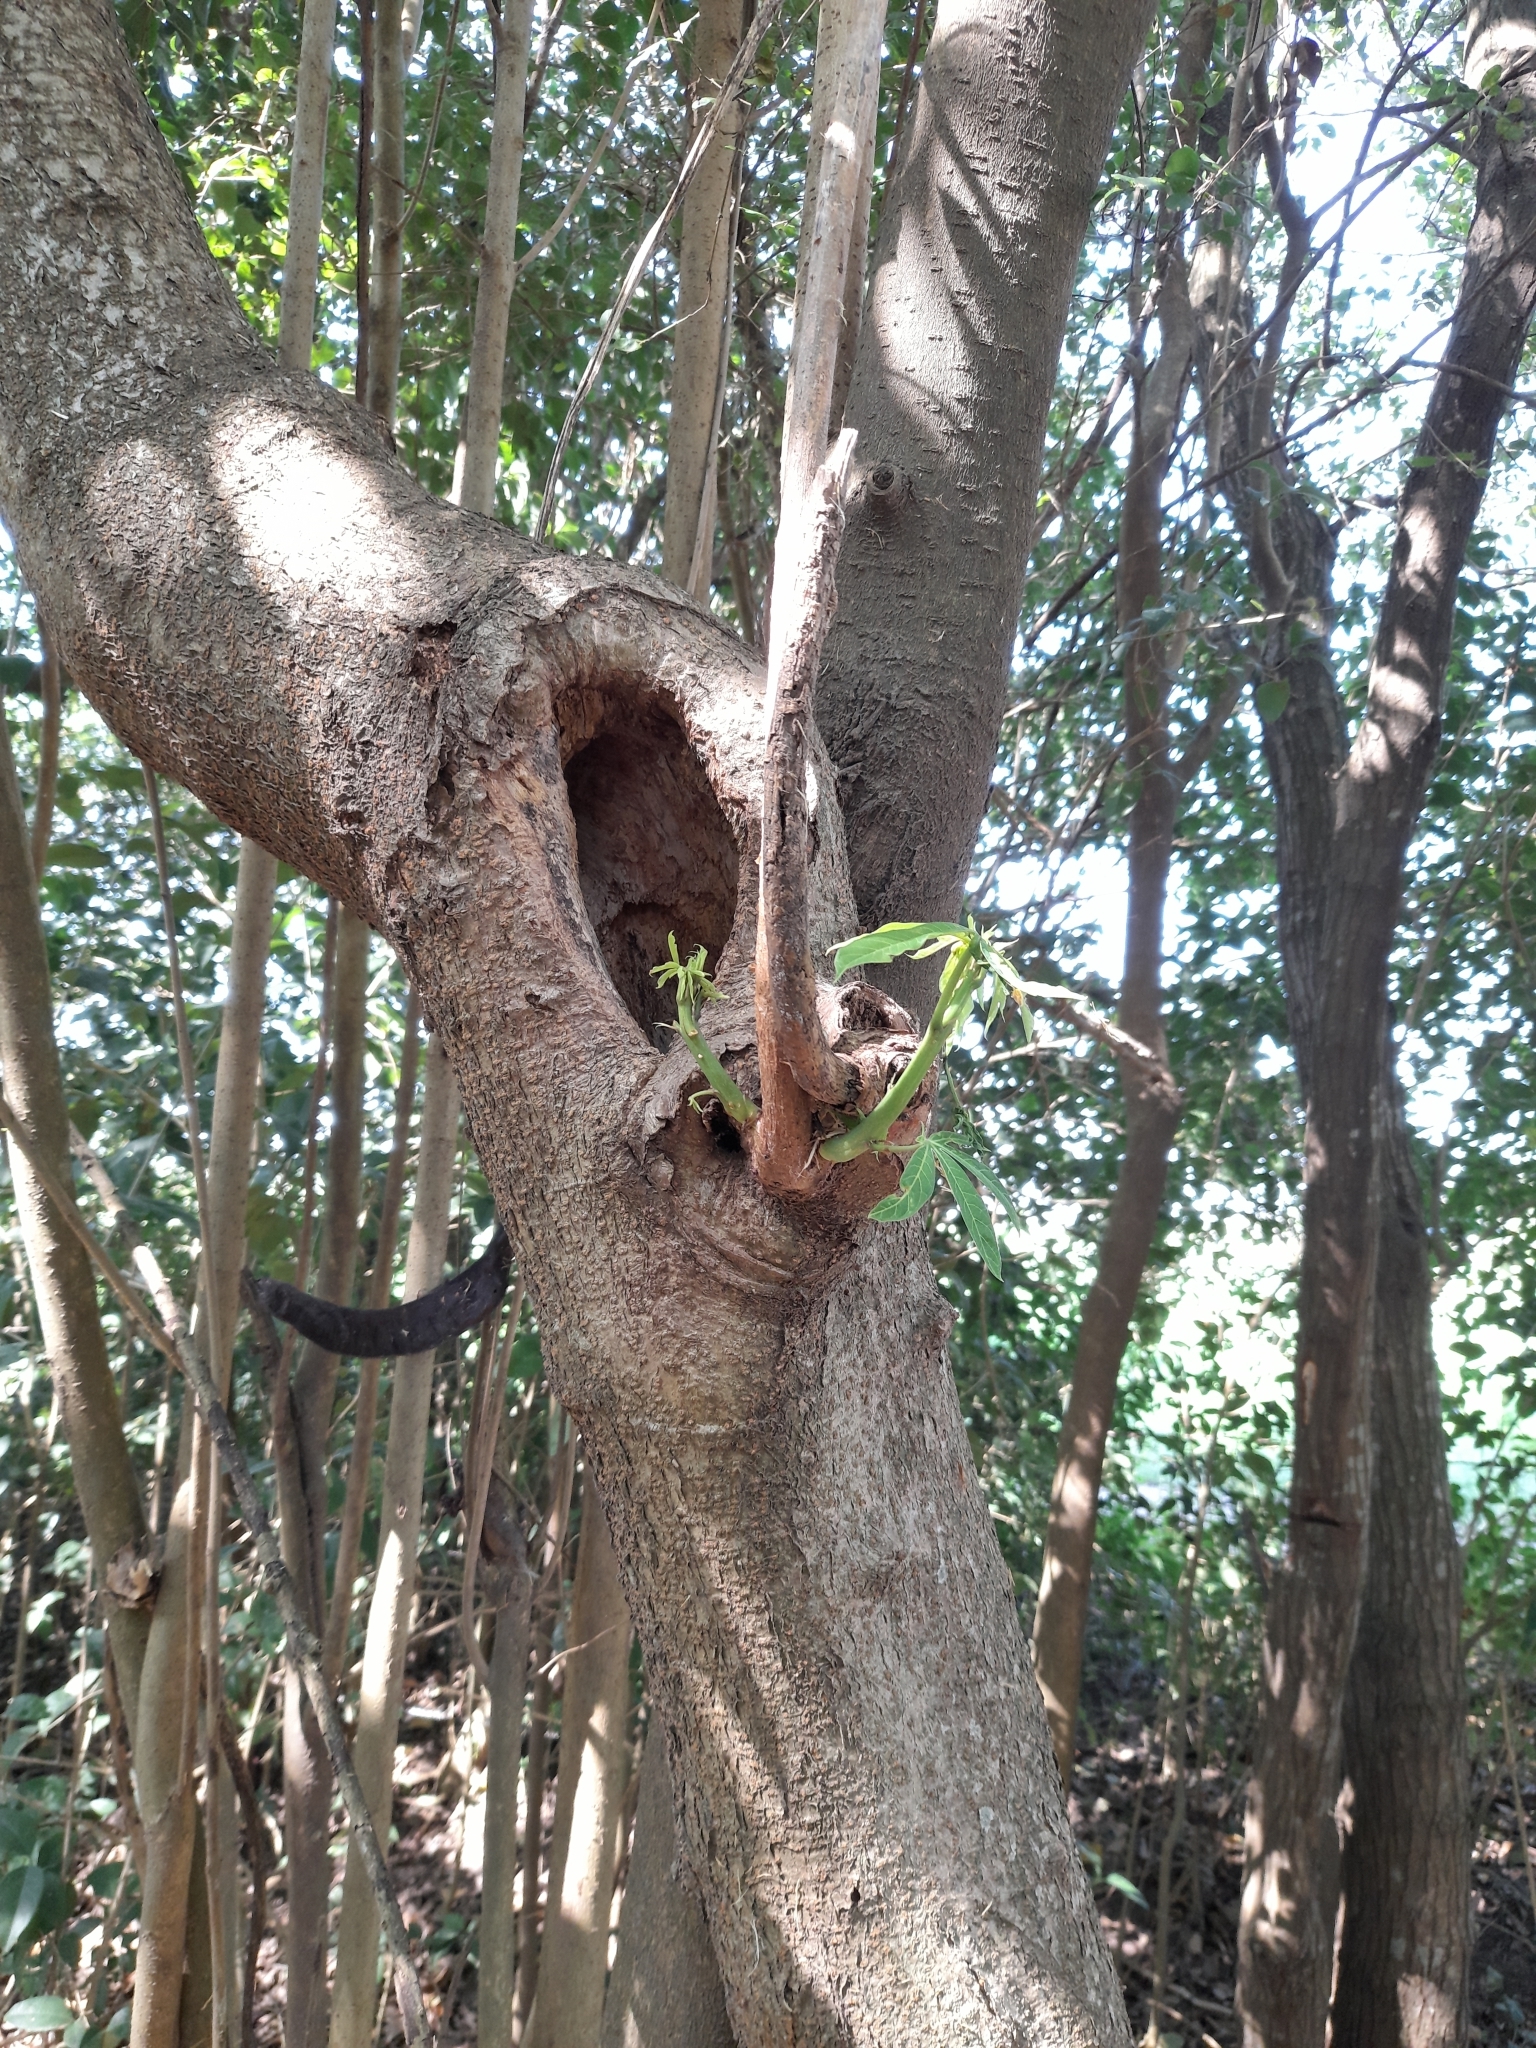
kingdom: Plantae
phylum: Tracheophyta
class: Magnoliopsida
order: Malpighiales
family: Euphorbiaceae
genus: Manihot
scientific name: Manihot grahamii
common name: Graham's manihot
